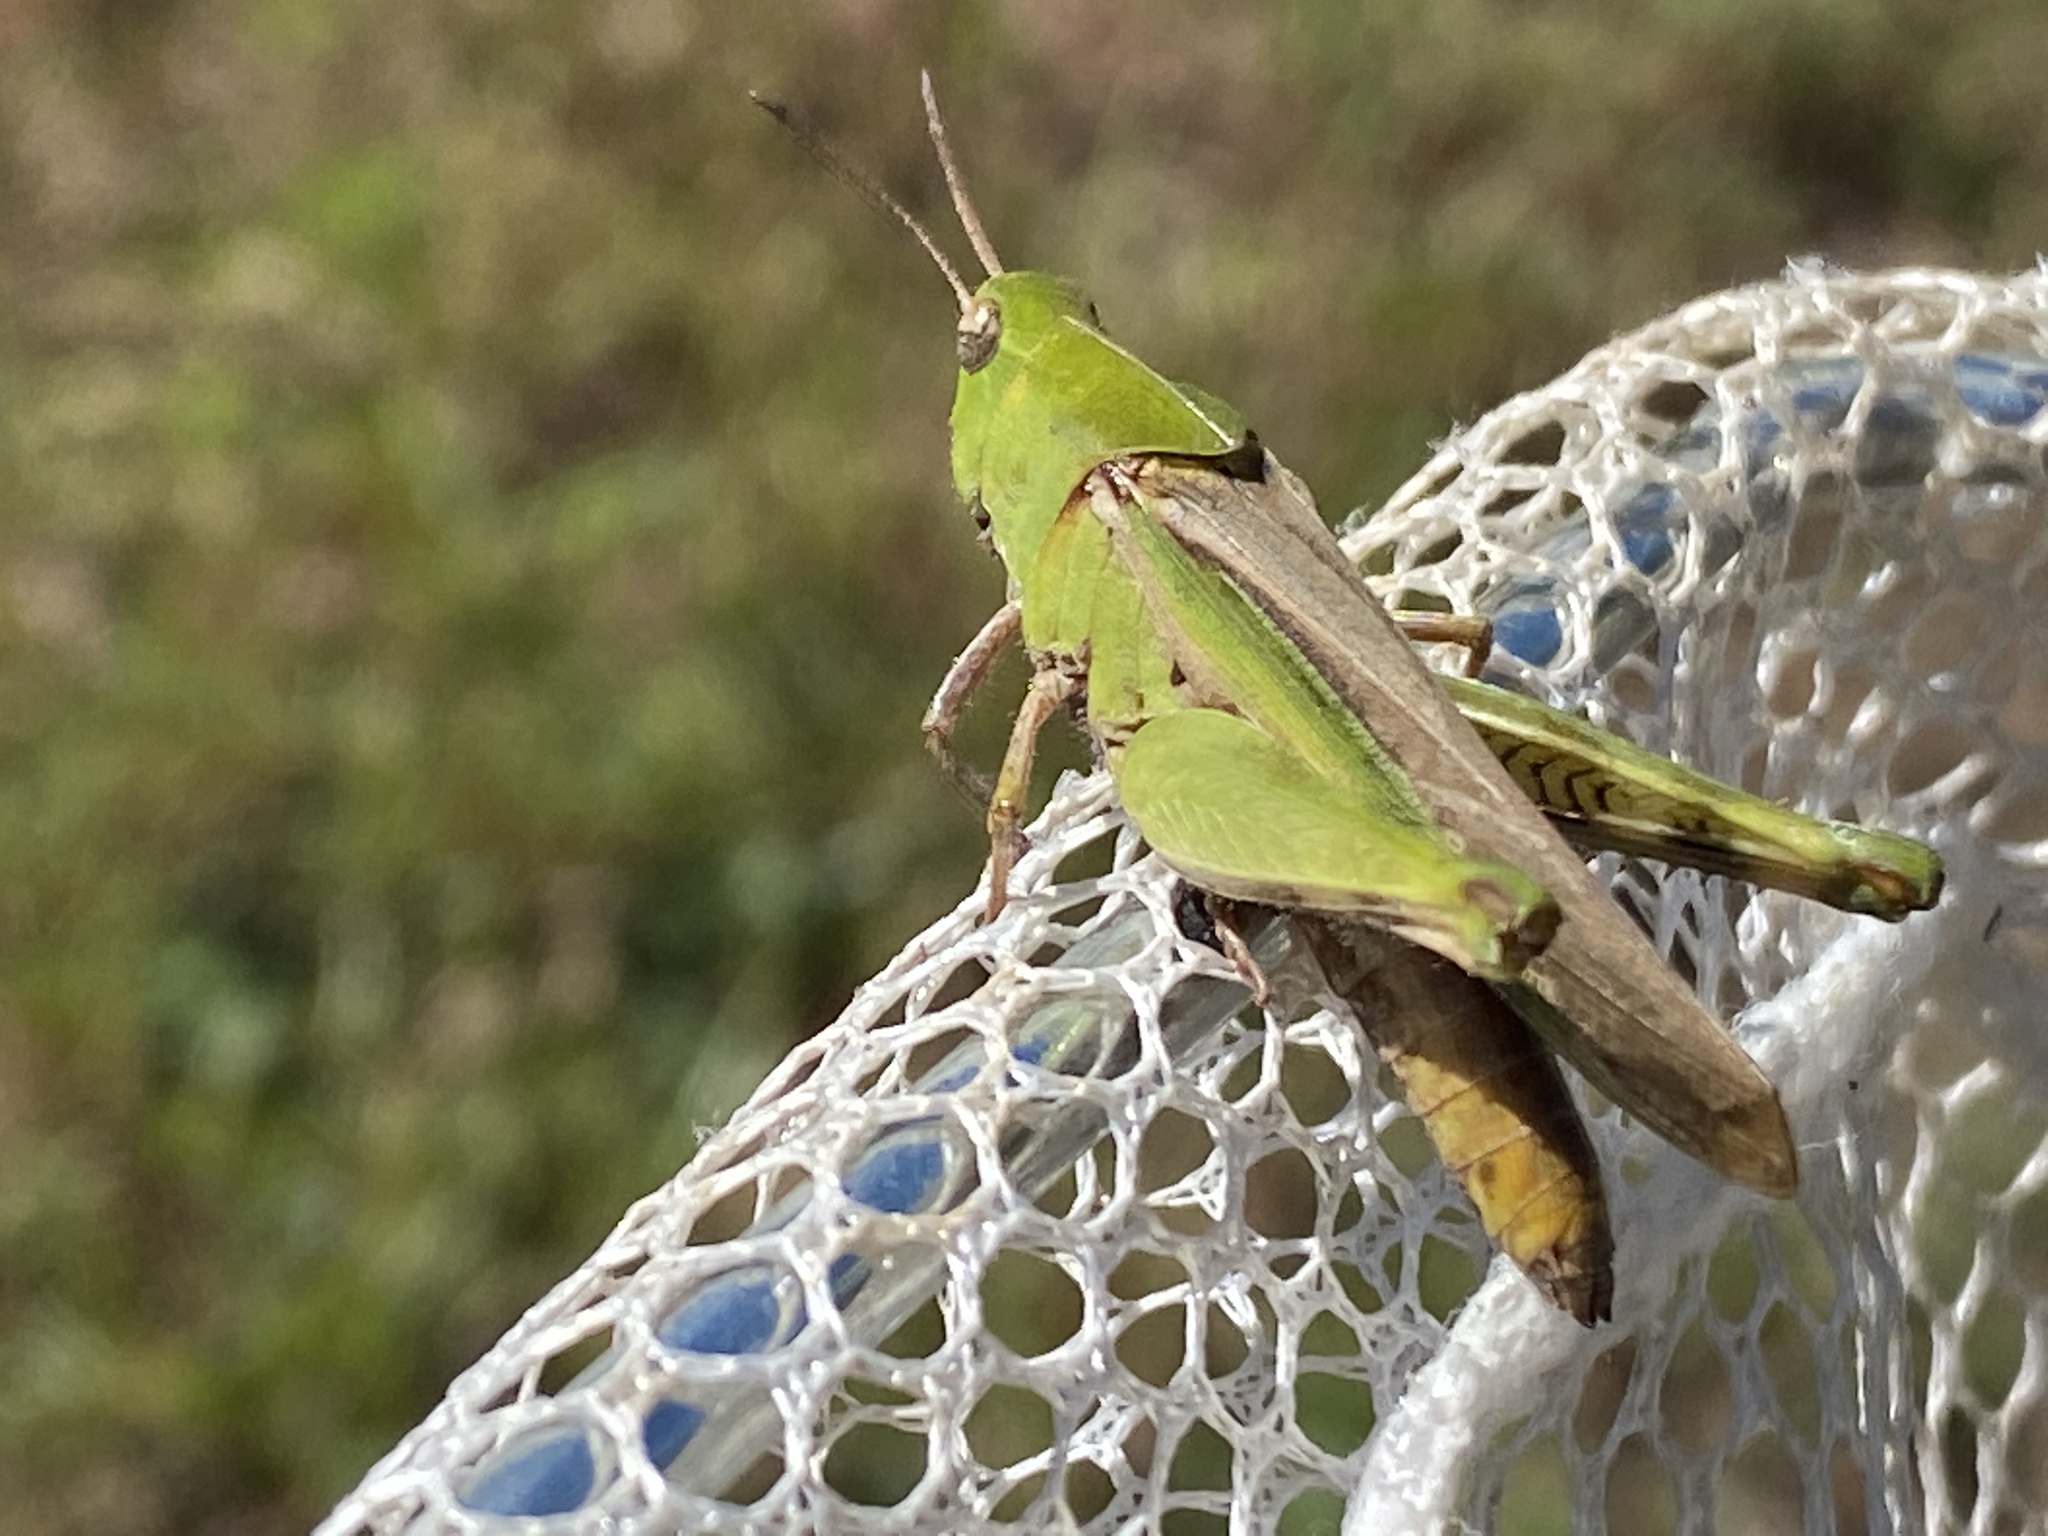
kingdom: Animalia
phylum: Arthropoda
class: Insecta
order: Orthoptera
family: Acrididae
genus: Chortophaga
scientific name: Chortophaga viridifasciata
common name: Green-striped grasshopper
